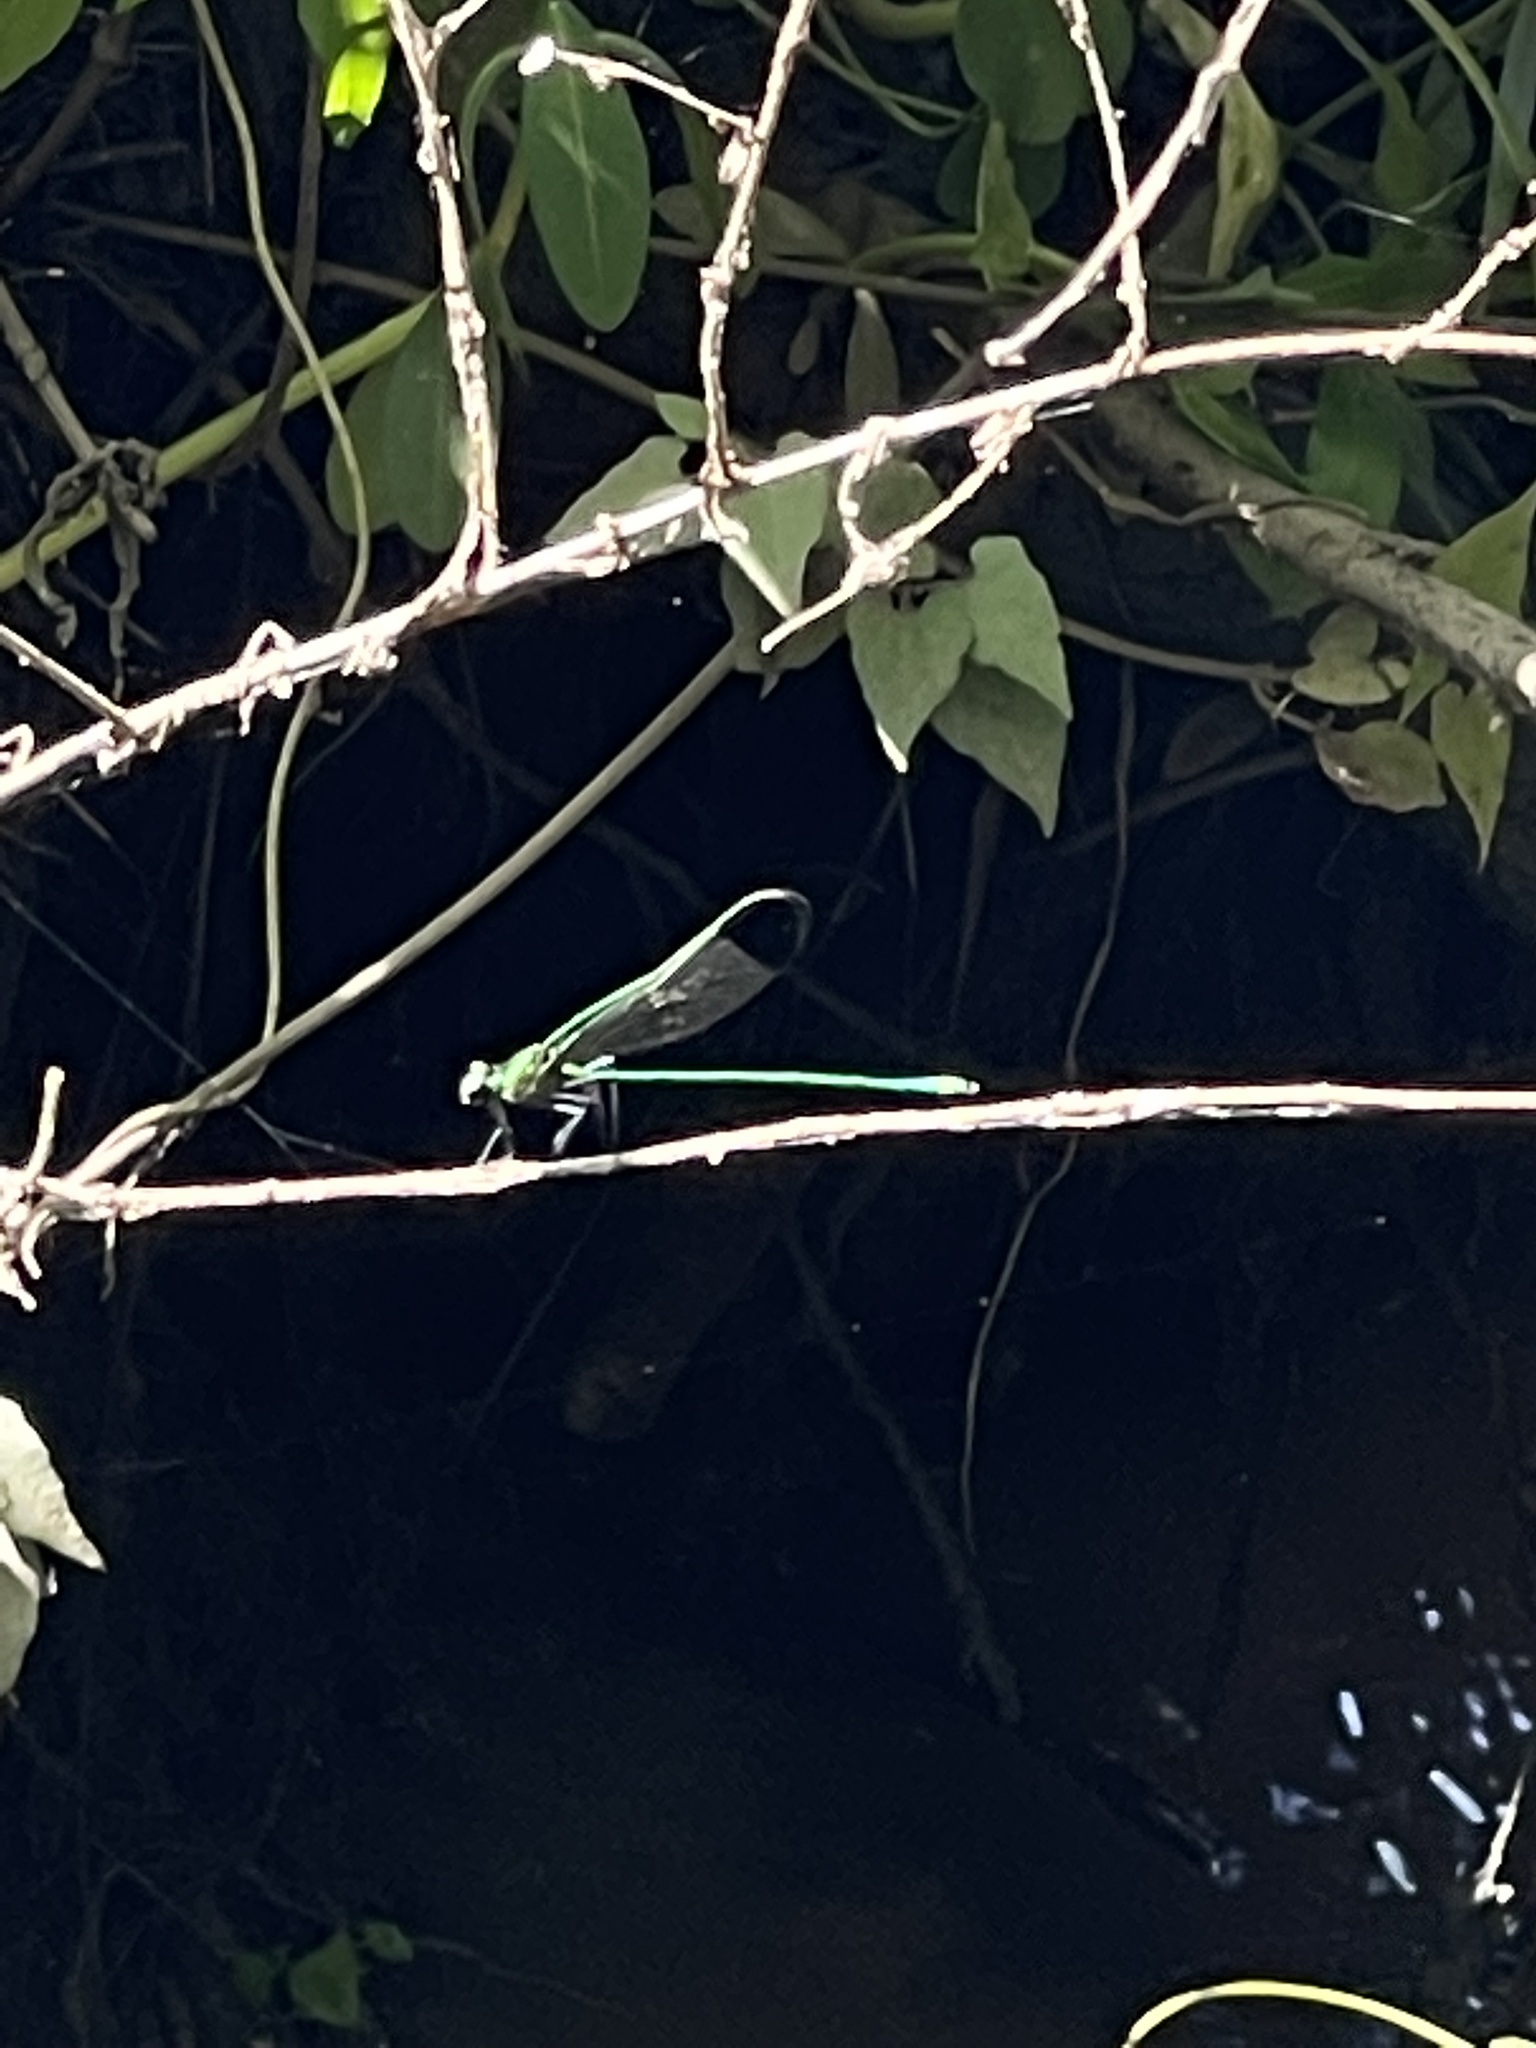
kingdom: Animalia
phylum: Arthropoda
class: Insecta
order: Odonata
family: Calopterygidae
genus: Calopteryx
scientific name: Calopteryx dimidiata
